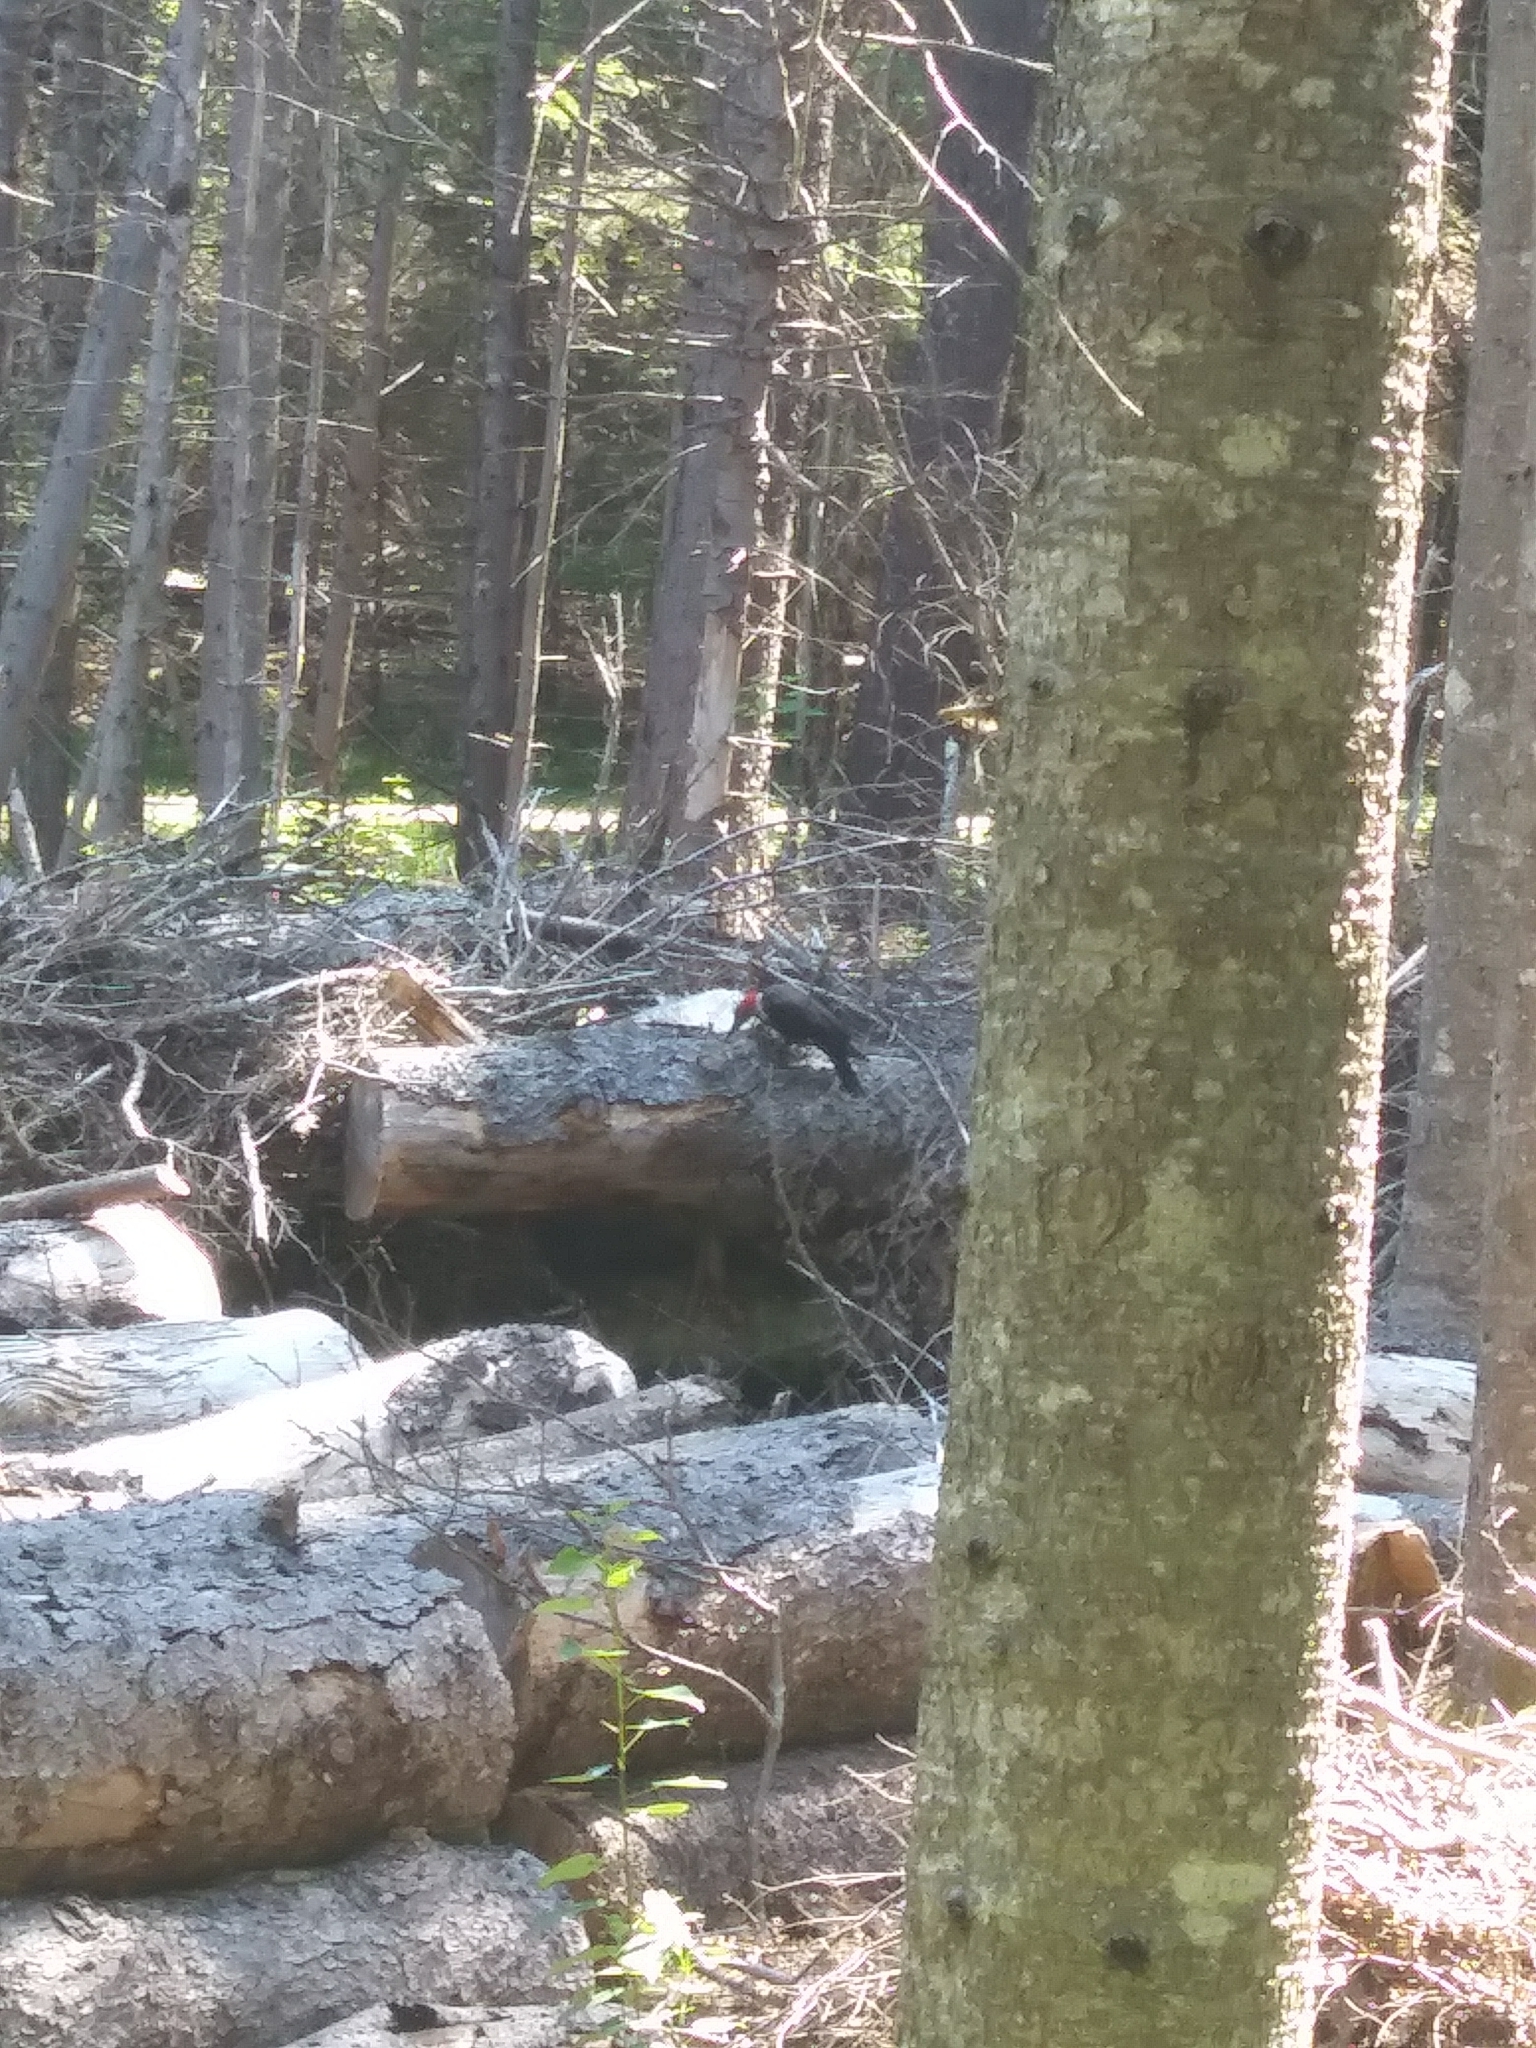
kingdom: Animalia
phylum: Chordata
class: Aves
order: Piciformes
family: Picidae
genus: Dryocopus
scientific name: Dryocopus pileatus
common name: Pileated woodpecker
